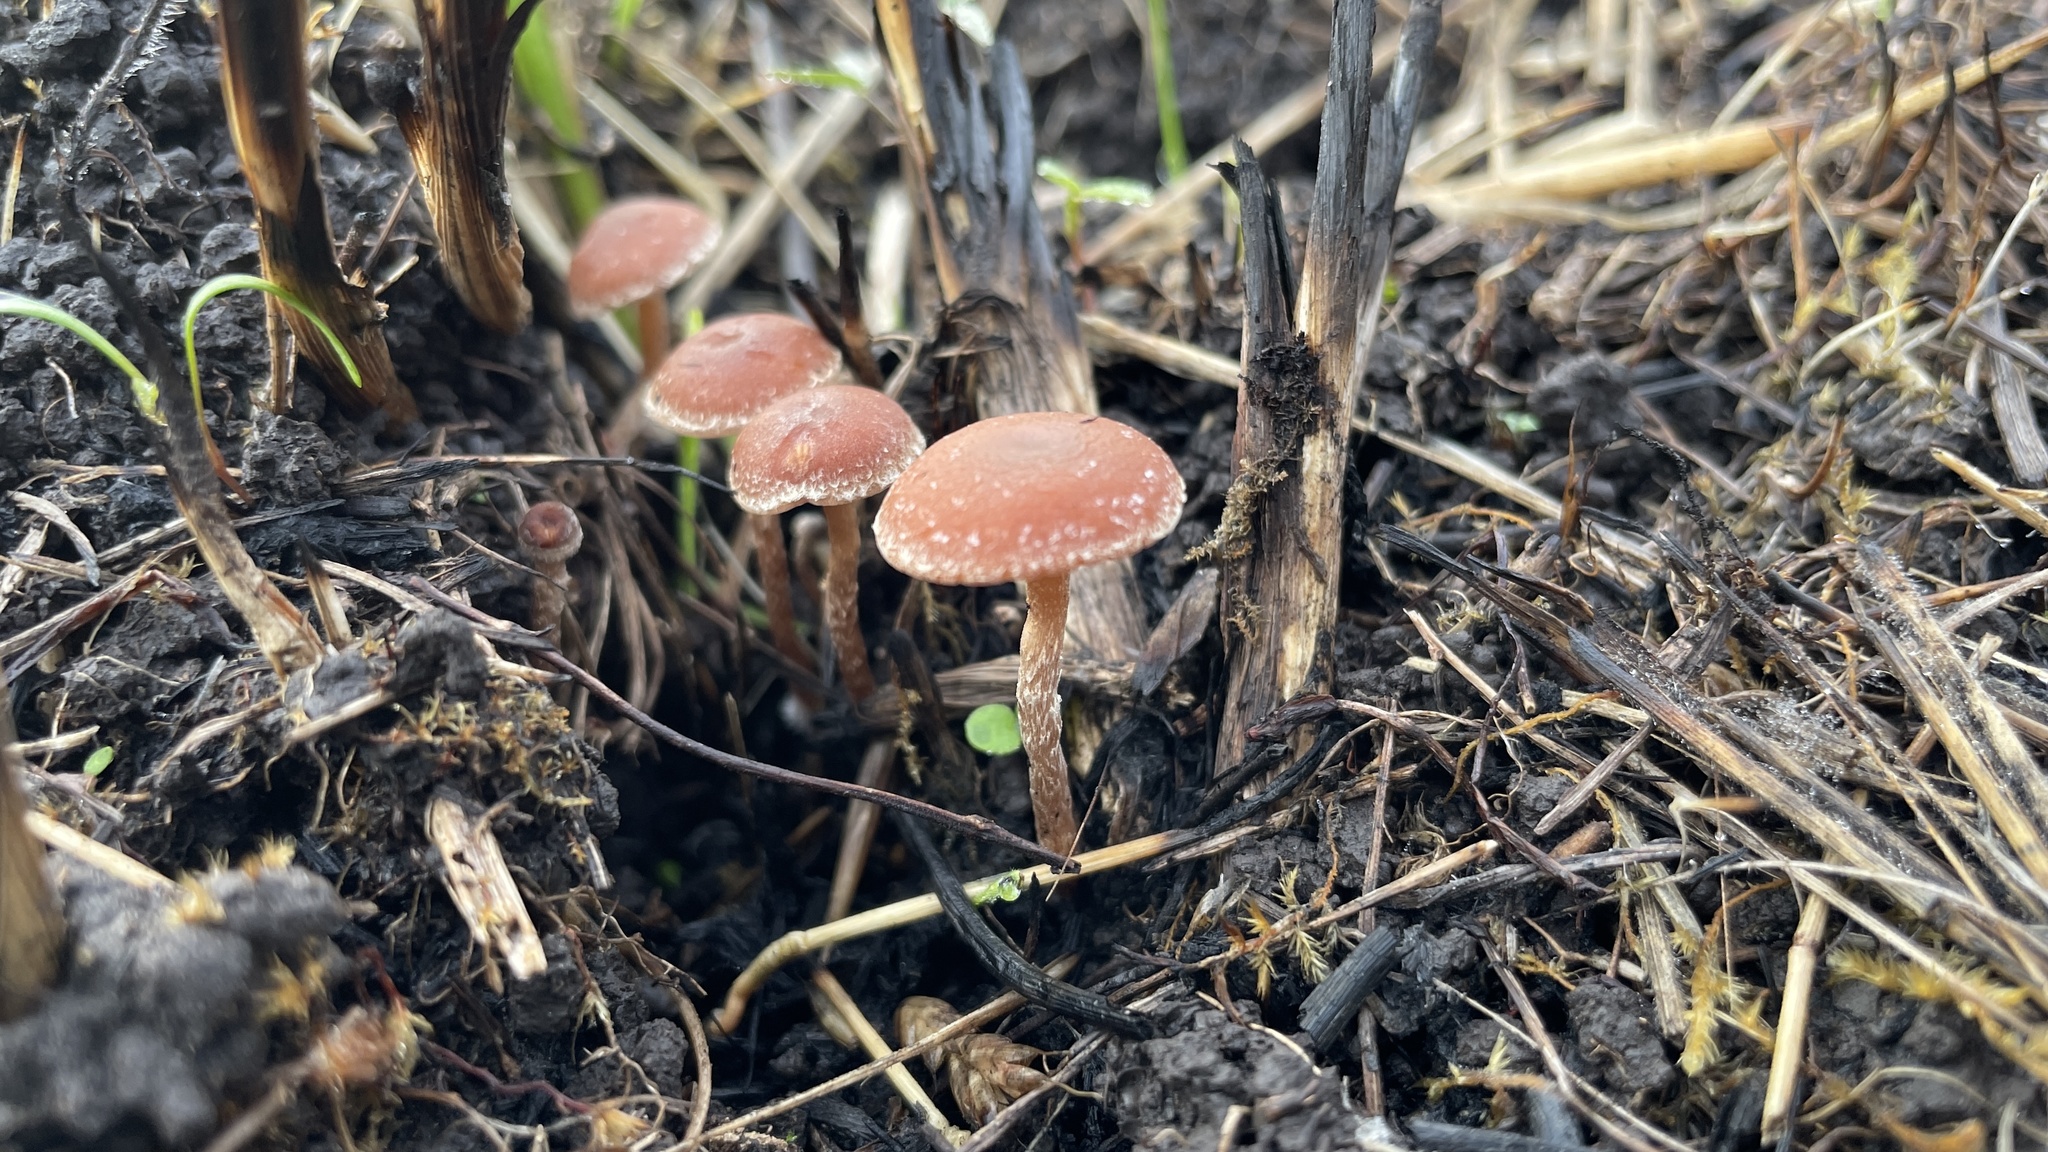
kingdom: Fungi
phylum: Basidiomycota
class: Agaricomycetes
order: Agaricales
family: Tubariaceae
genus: Tubaria
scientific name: Tubaria furfuracea
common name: Scurfy twiglet
